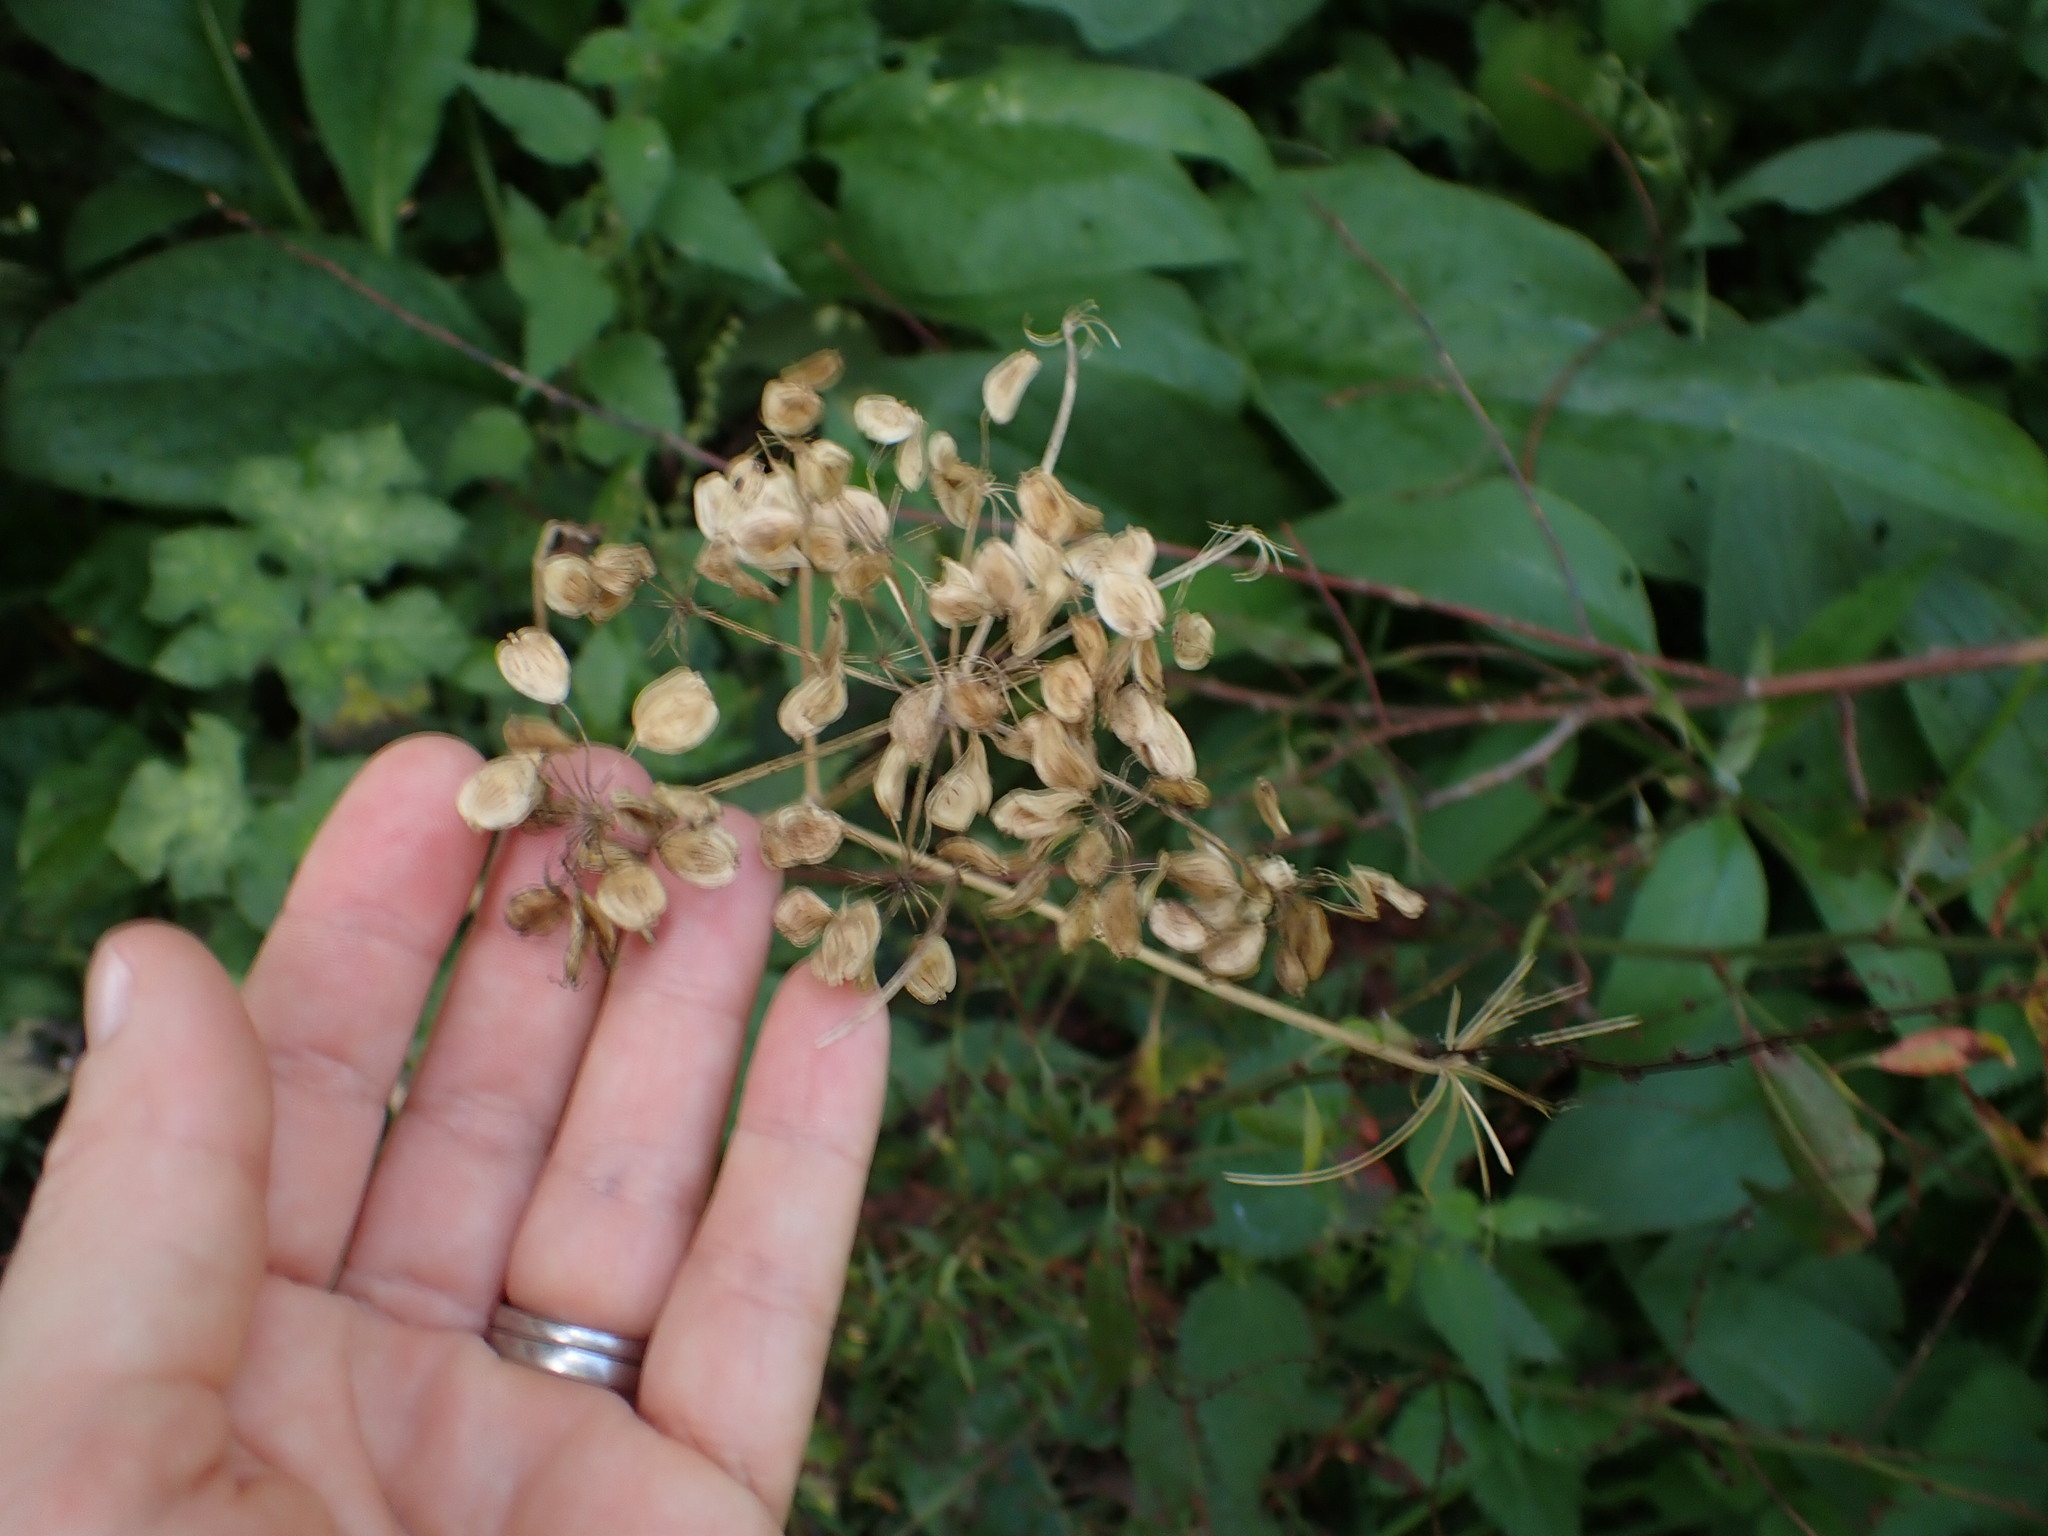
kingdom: Plantae
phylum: Tracheophyta
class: Magnoliopsida
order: Apiales
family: Apiaceae
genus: Heracleum
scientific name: Heracleum sphondylium
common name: Hogweed
